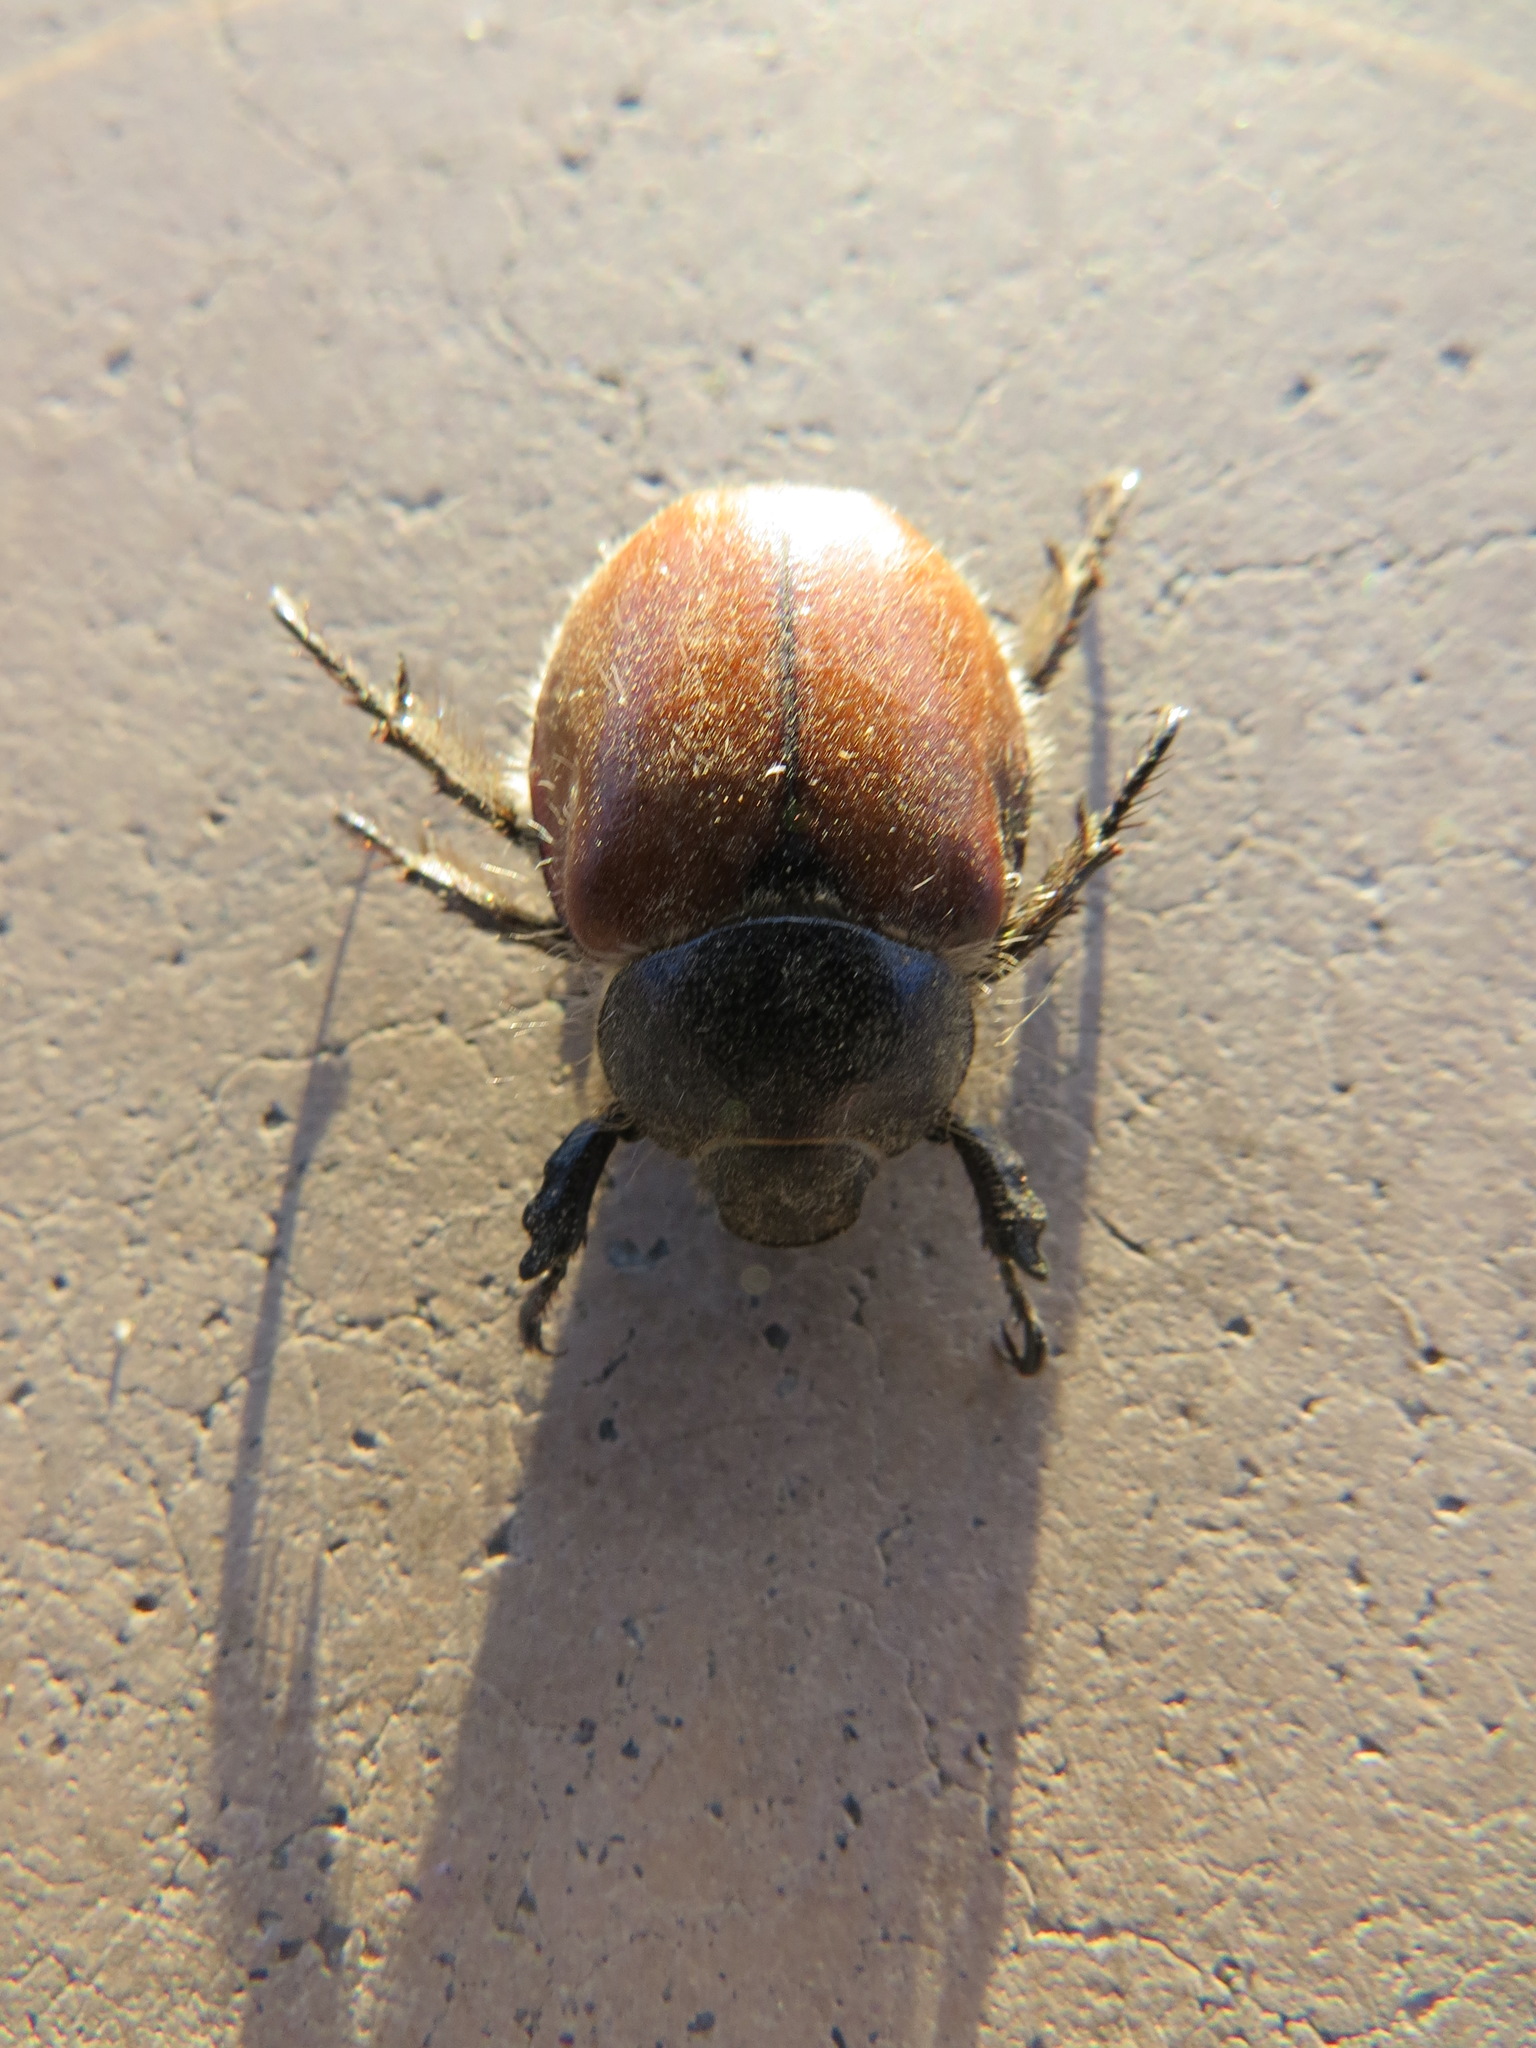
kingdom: Animalia
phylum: Arthropoda
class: Insecta
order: Coleoptera
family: Scarabaeidae
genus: Paracotalpa
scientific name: Paracotalpa ursina
